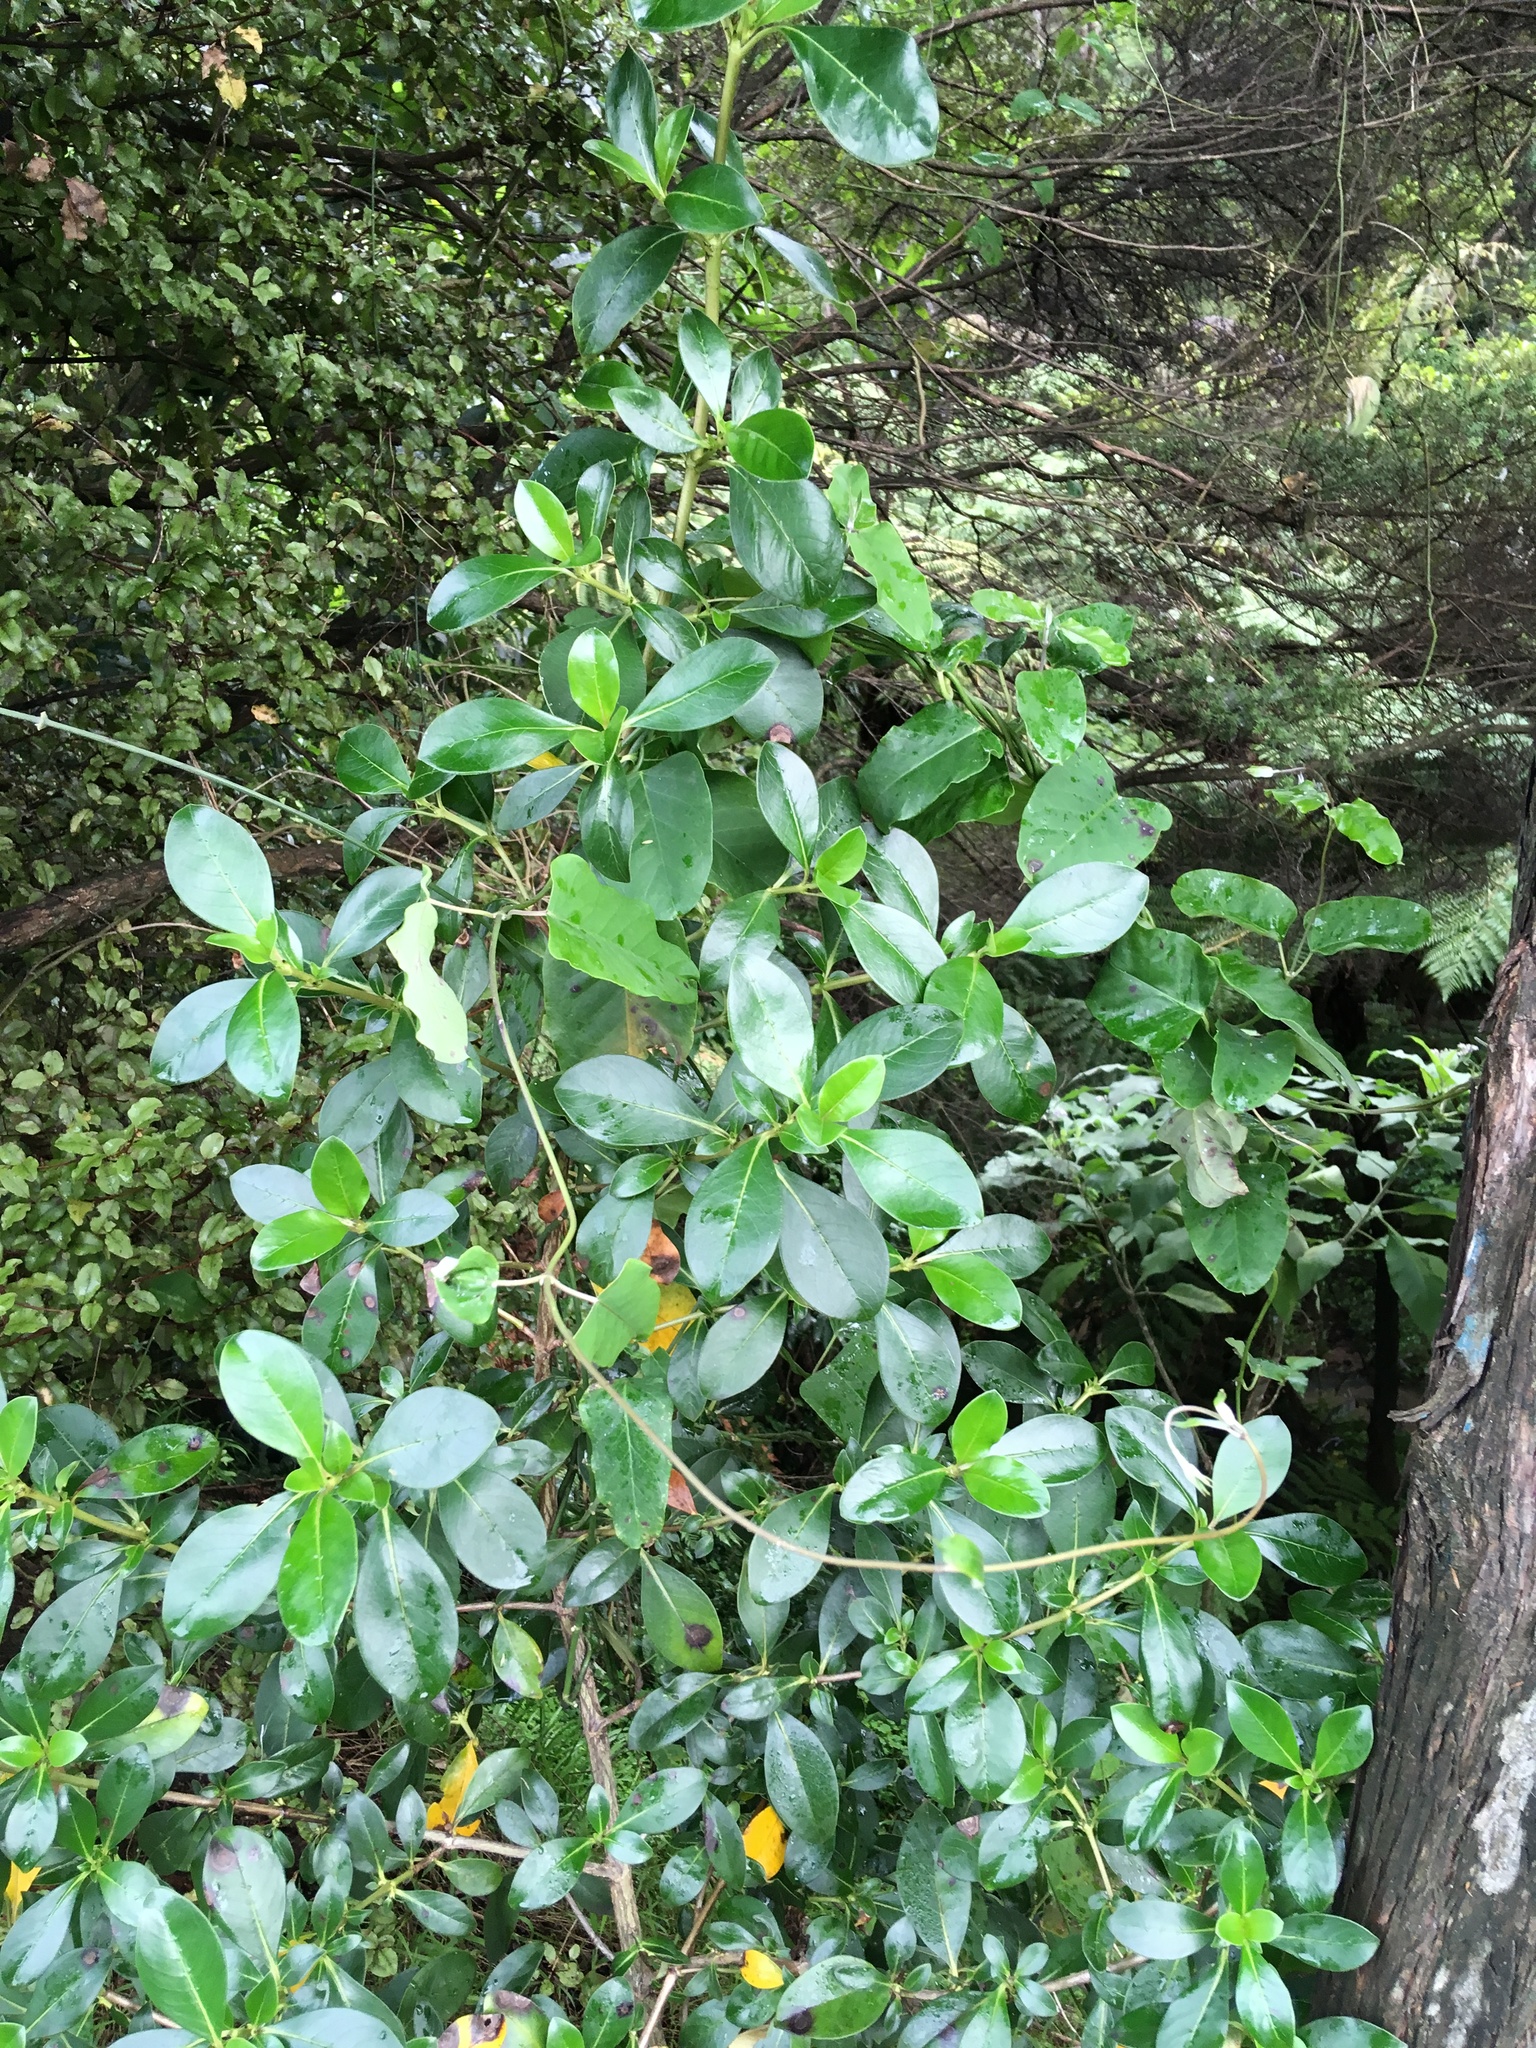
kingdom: Plantae
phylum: Tracheophyta
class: Magnoliopsida
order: Gentianales
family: Apocynaceae
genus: Araujia
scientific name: Araujia sericifera
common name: White bladderflower
